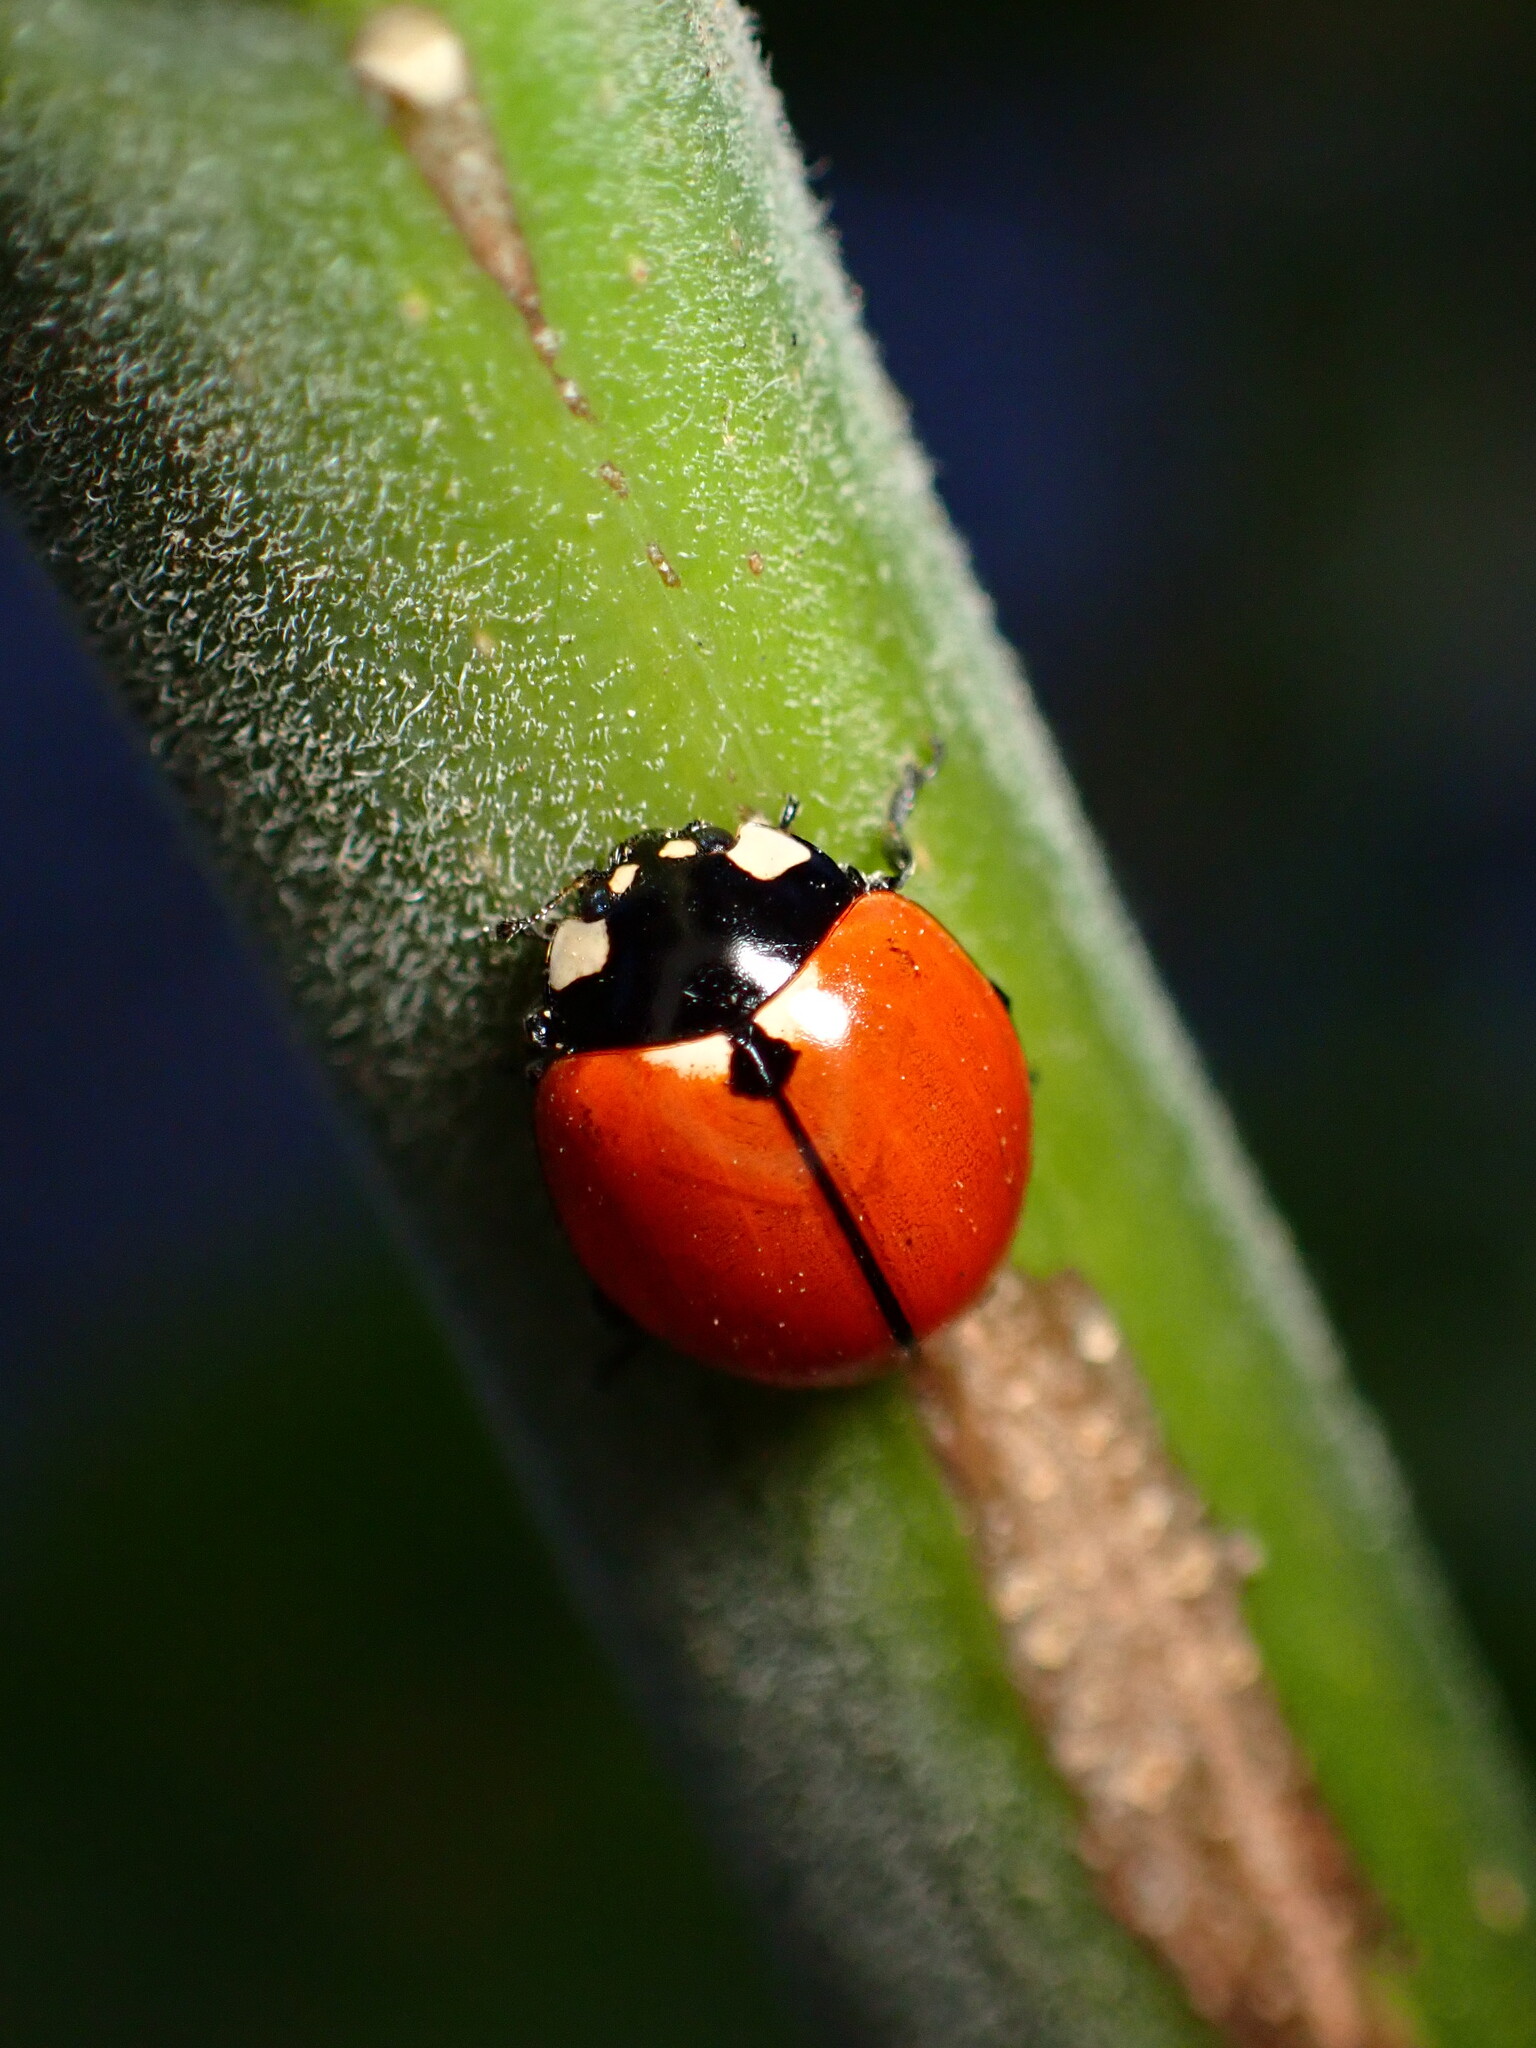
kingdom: Animalia
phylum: Arthropoda
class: Insecta
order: Coleoptera
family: Coccinellidae
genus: Coccinella
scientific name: Coccinella californica
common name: Lady beetle
